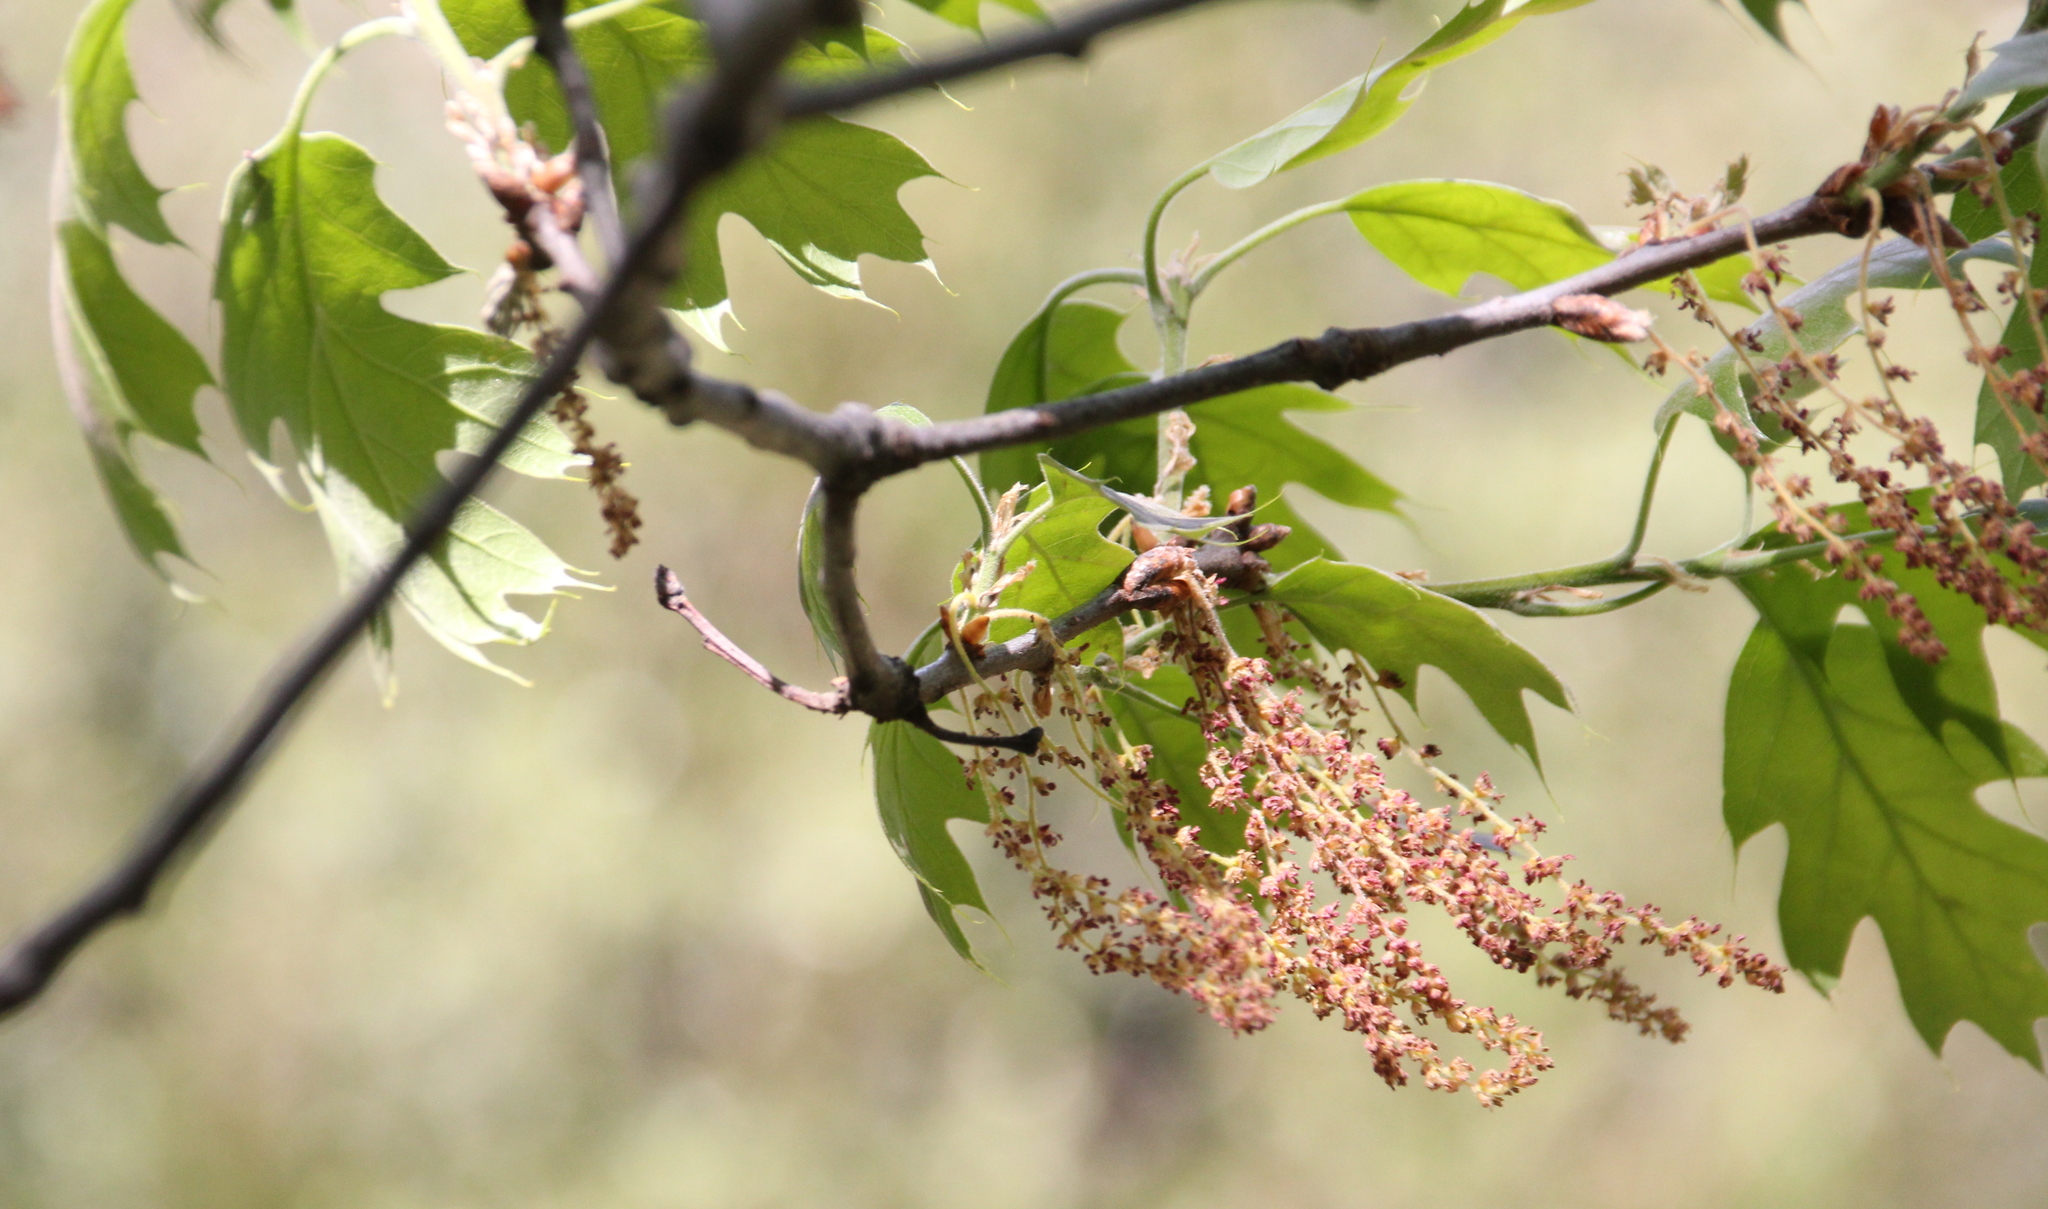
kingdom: Plantae
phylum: Tracheophyta
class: Magnoliopsida
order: Fagales
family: Fagaceae
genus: Quercus
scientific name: Quercus kelloggii
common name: California black oak
